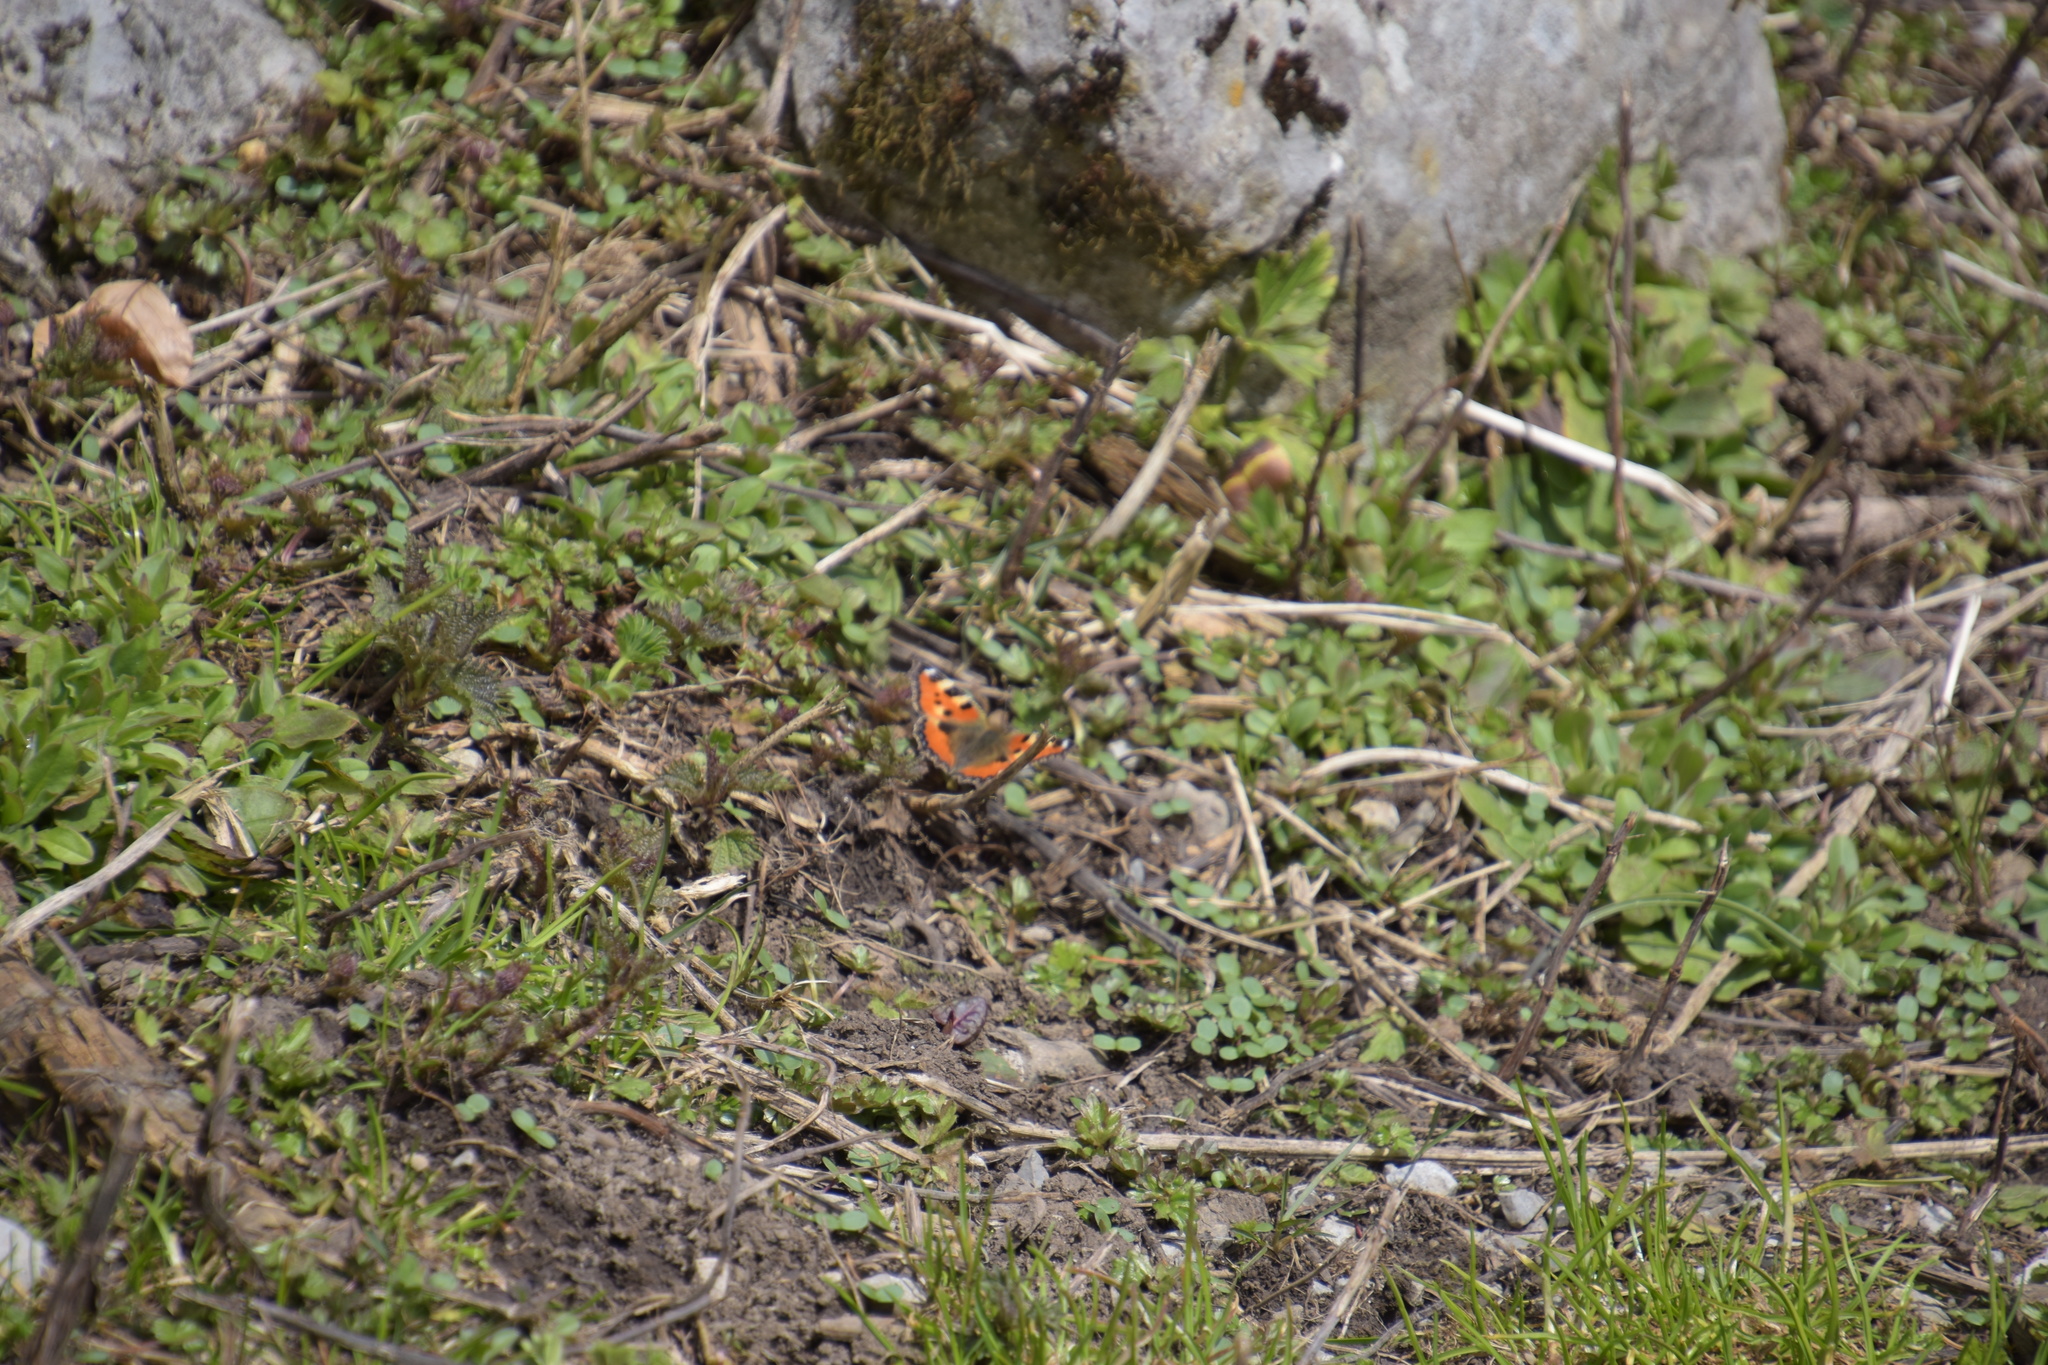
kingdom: Animalia
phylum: Arthropoda
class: Insecta
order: Lepidoptera
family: Nymphalidae
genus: Aglais
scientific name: Aglais urticae
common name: Small tortoiseshell
